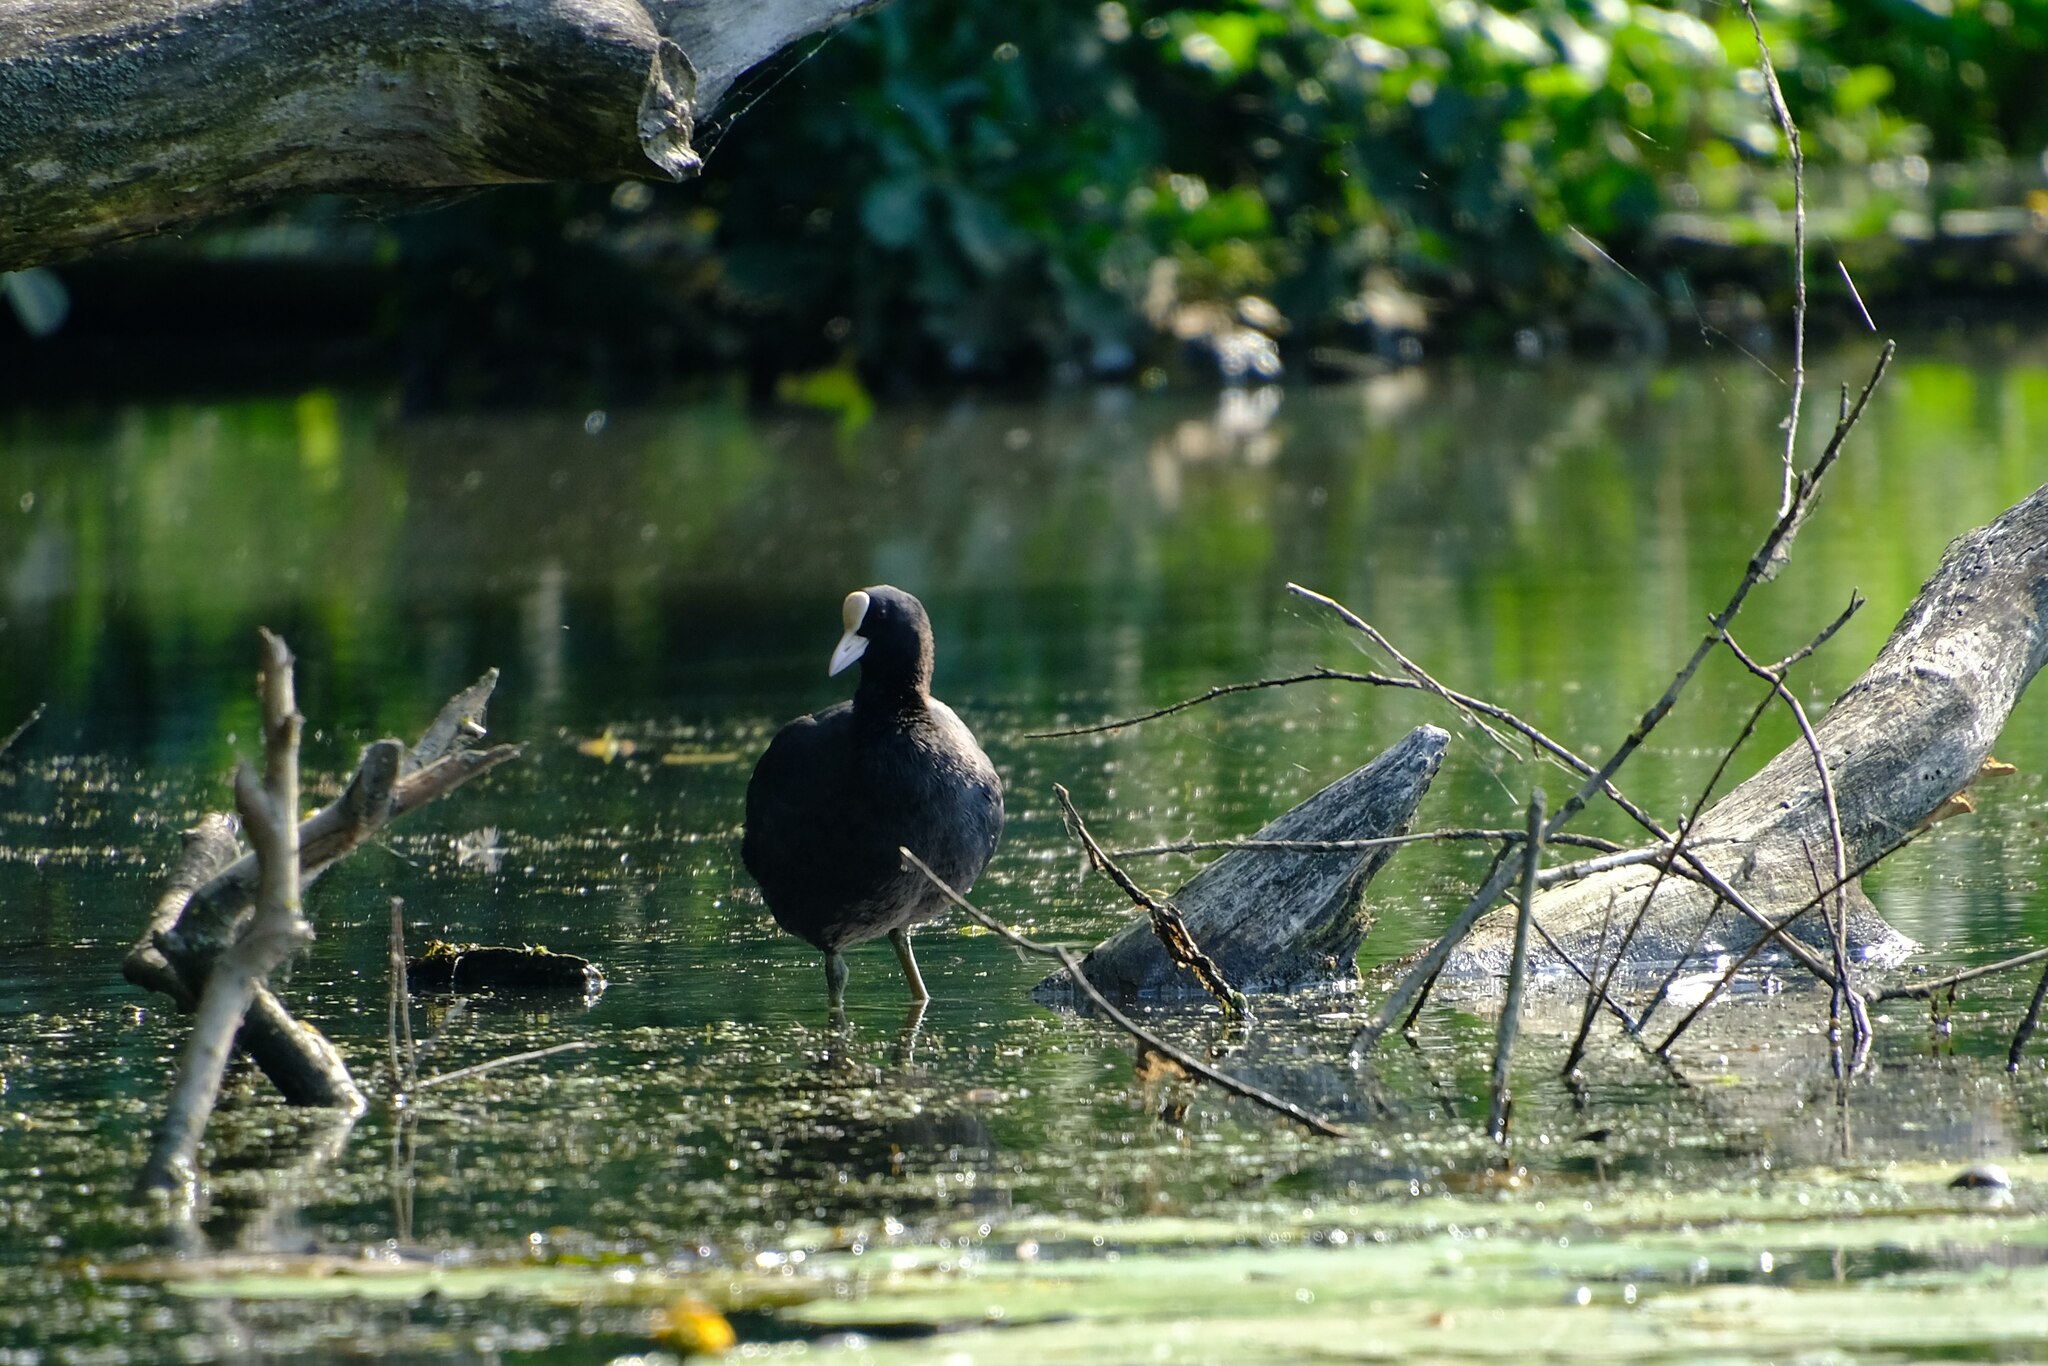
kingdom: Animalia
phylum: Chordata
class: Aves
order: Gruiformes
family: Rallidae
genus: Fulica
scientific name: Fulica atra
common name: Eurasian coot
